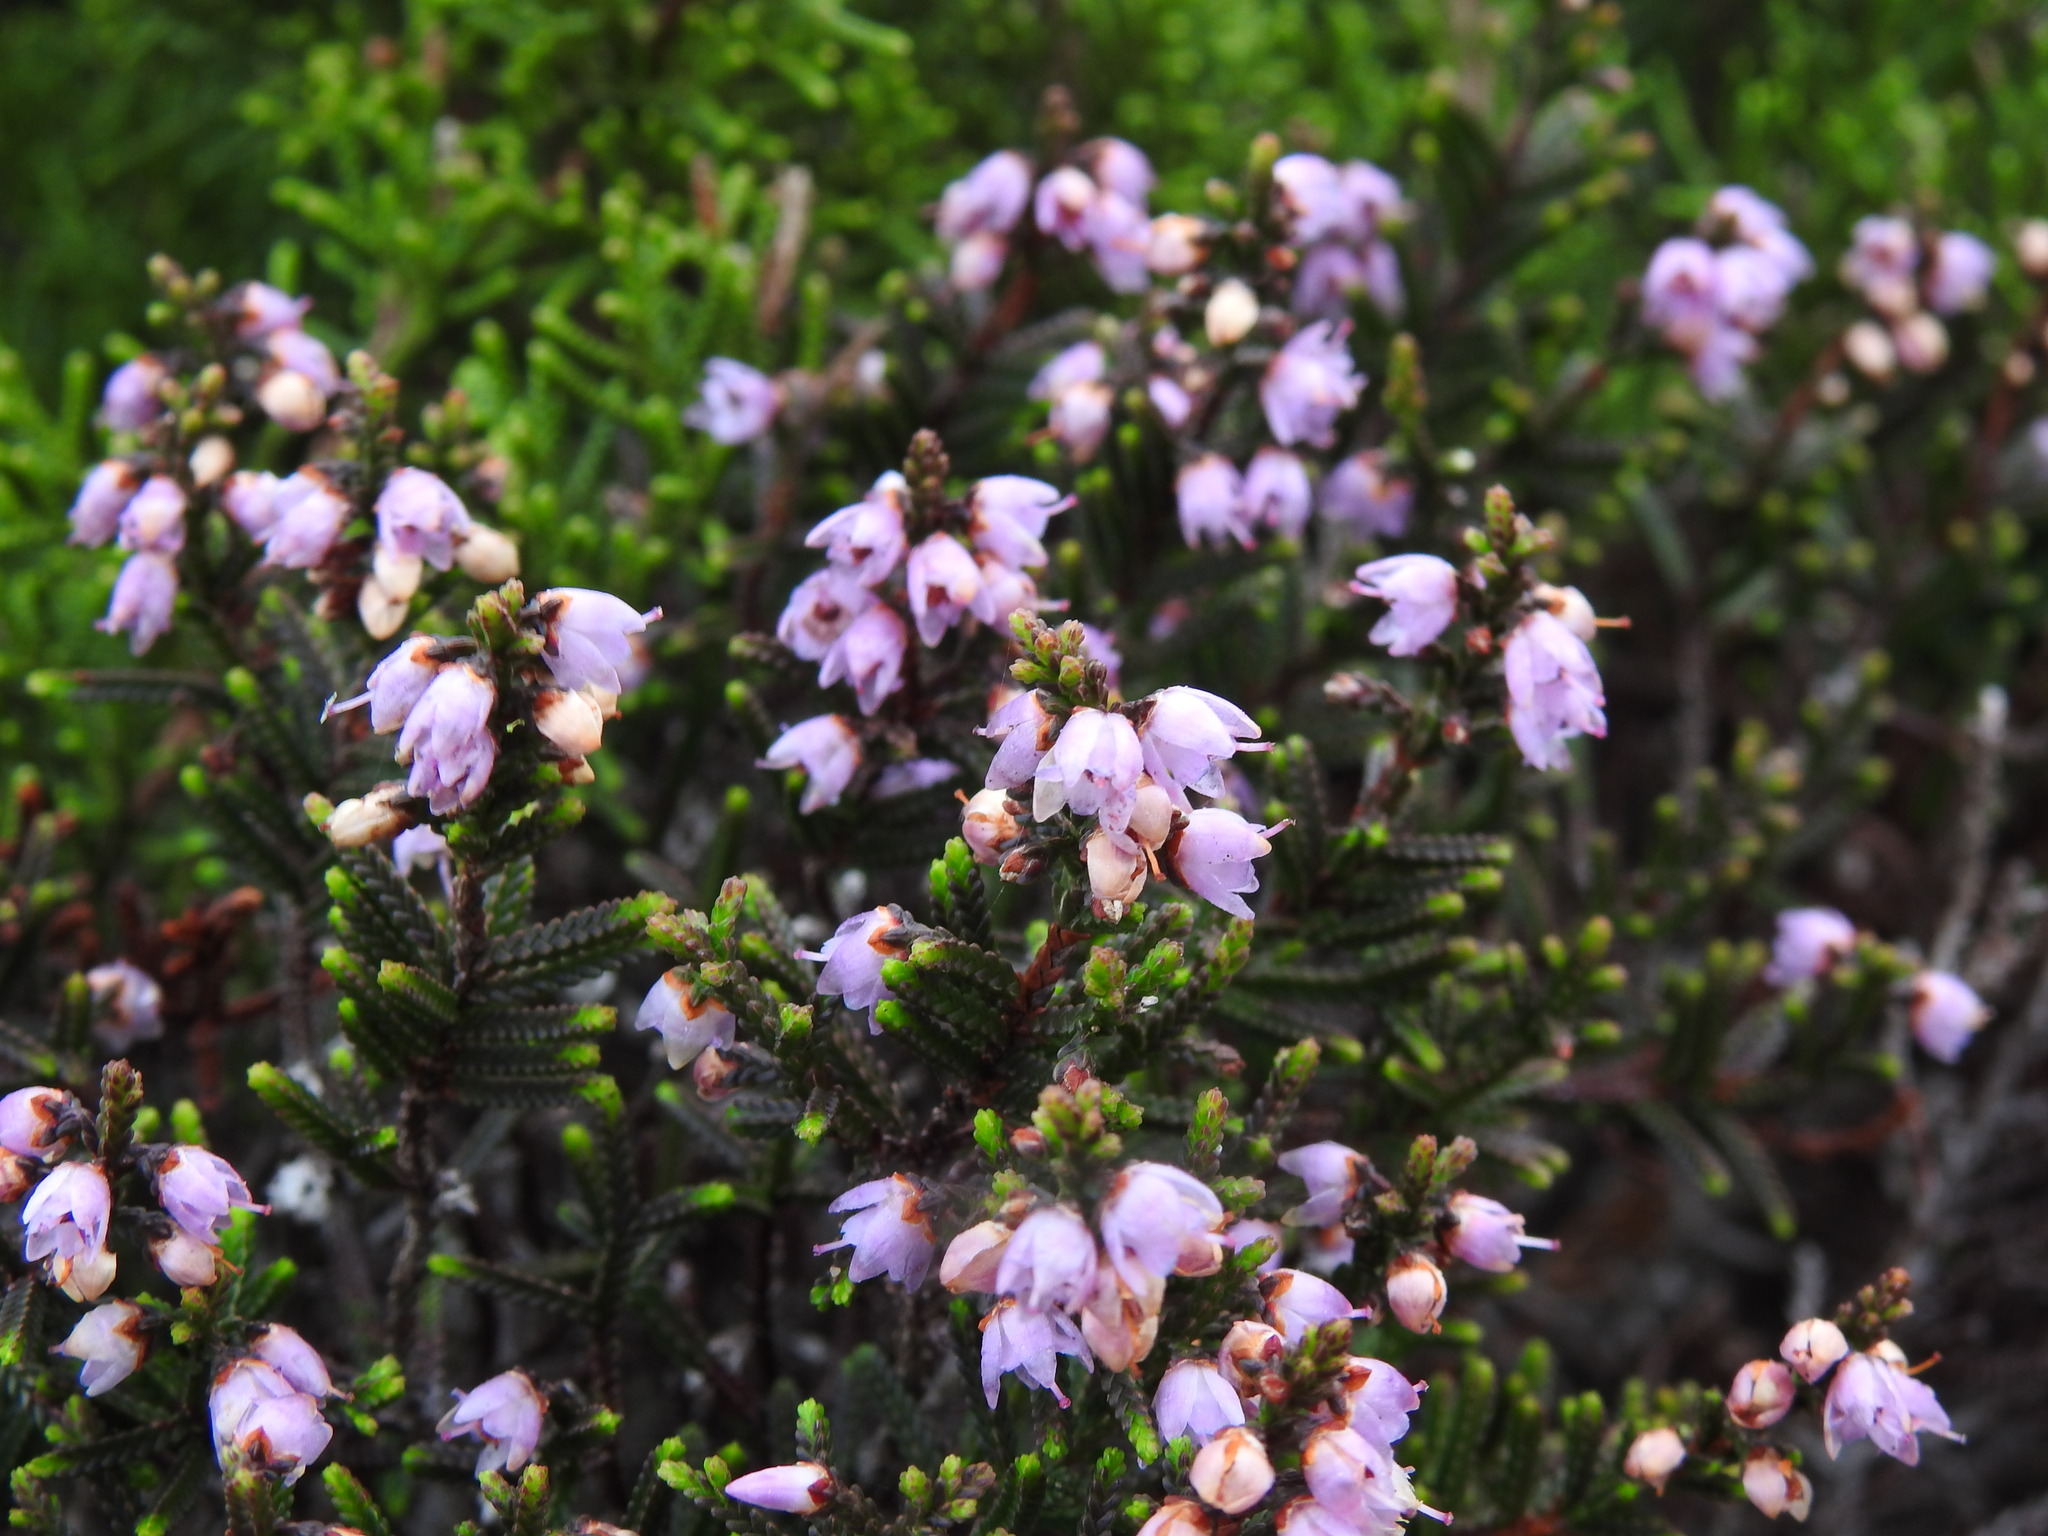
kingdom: Plantae
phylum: Tracheophyta
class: Magnoliopsida
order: Ericales
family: Ericaceae
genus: Calluna
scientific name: Calluna vulgaris
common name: Heather
